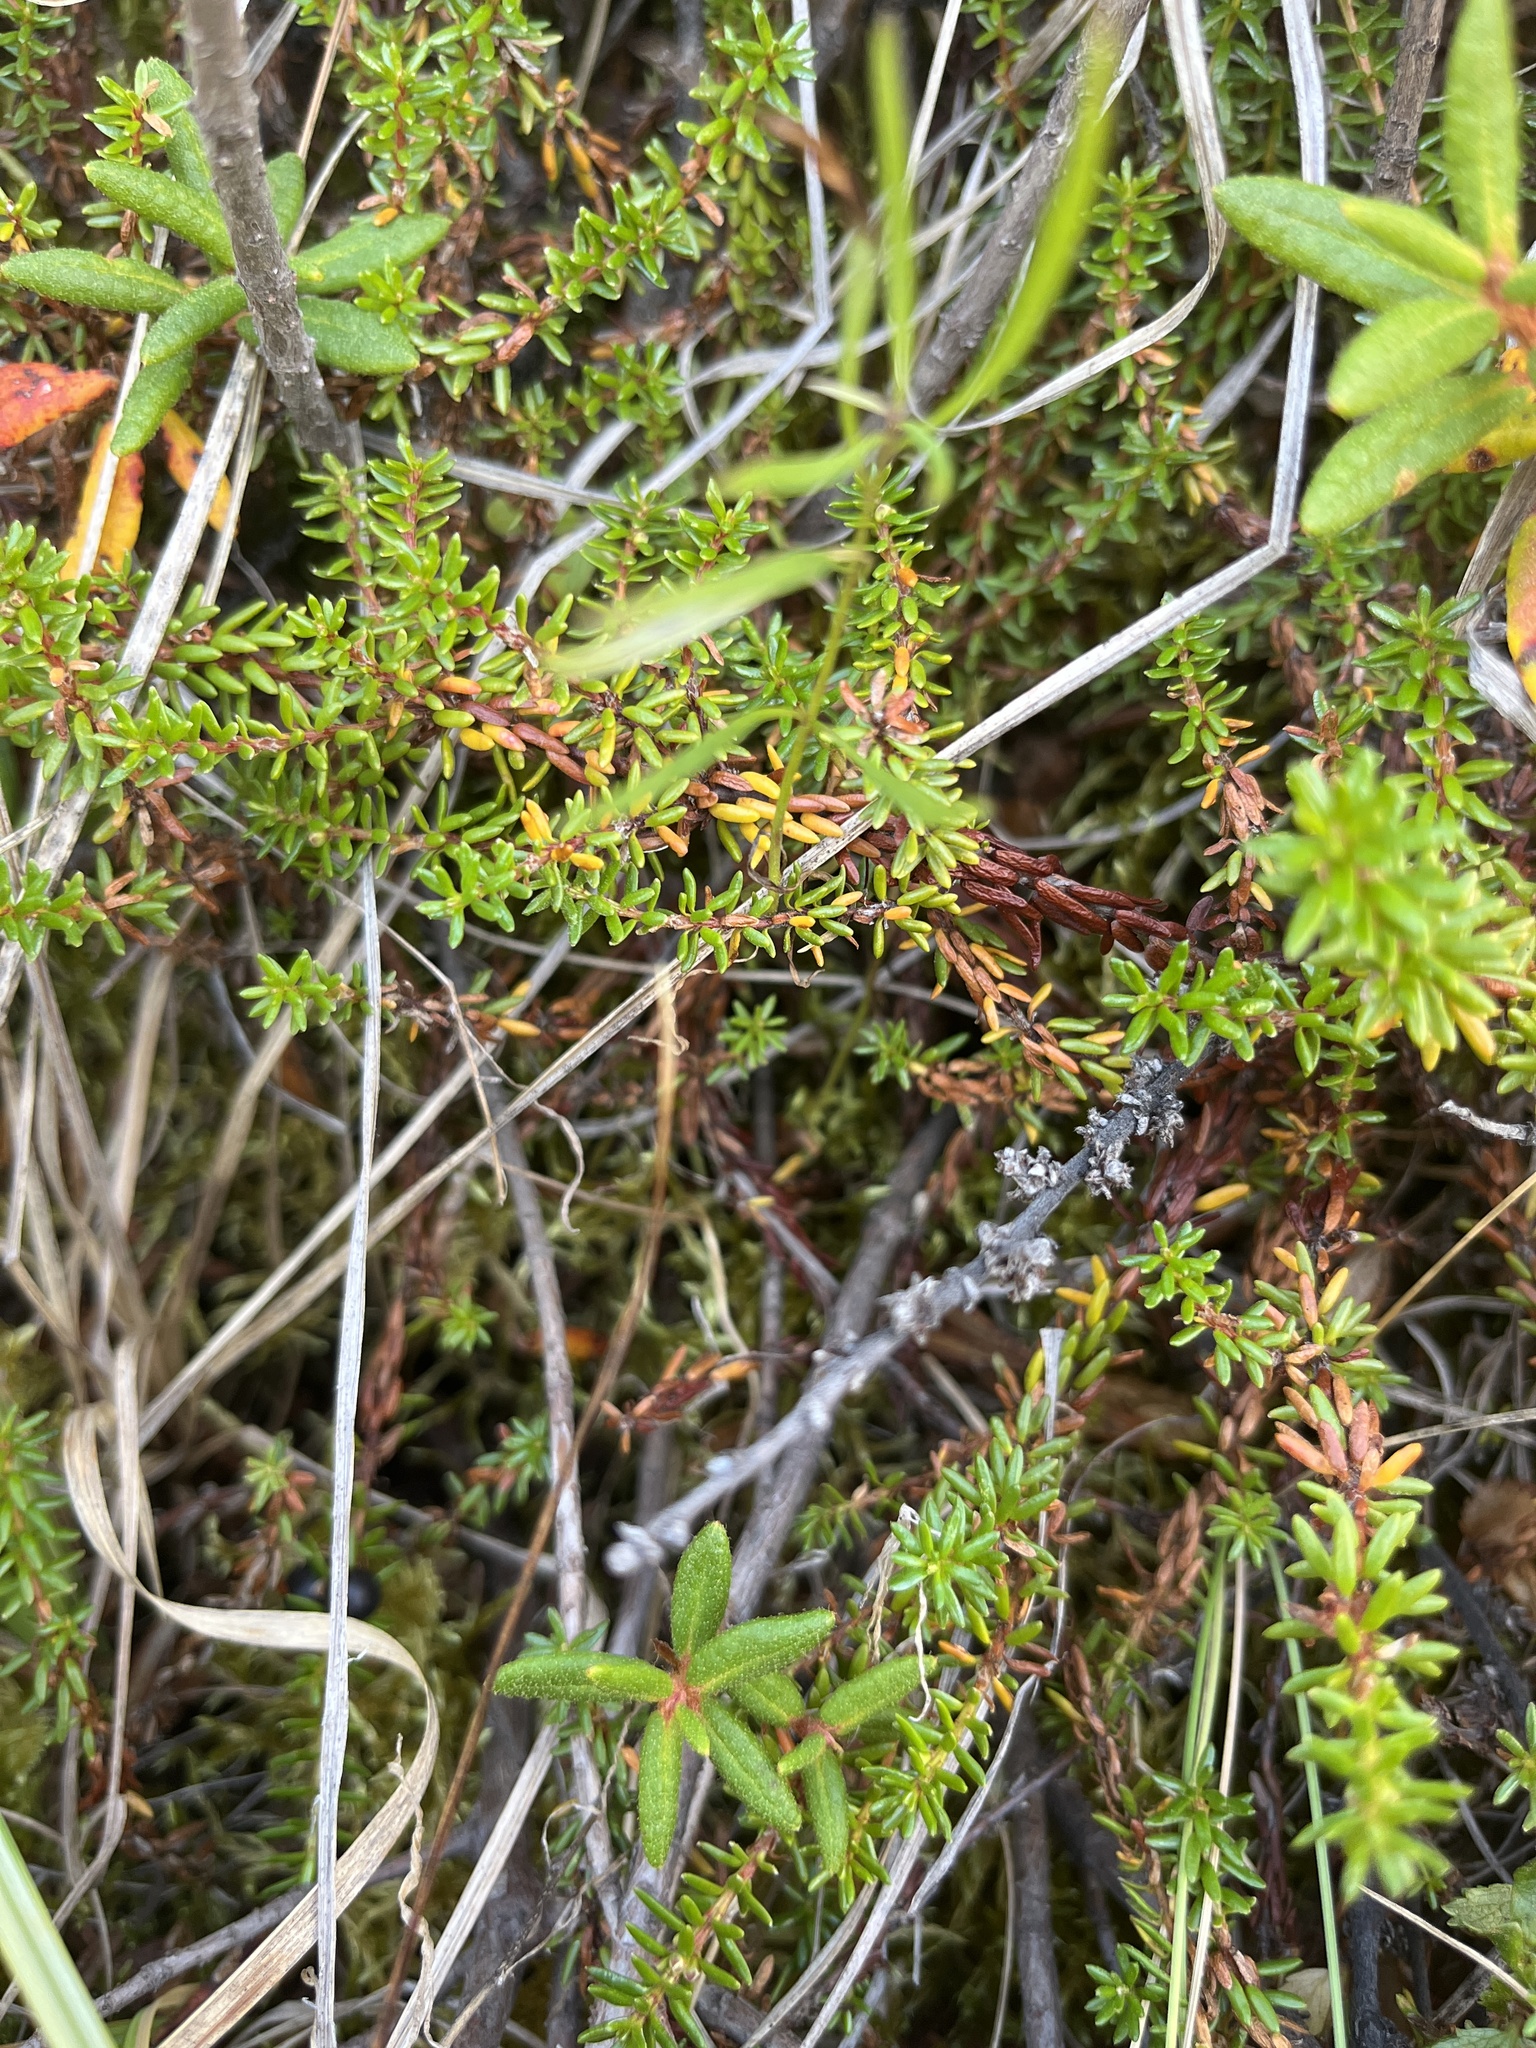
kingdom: Plantae
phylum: Tracheophyta
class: Magnoliopsida
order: Ericales
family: Ericaceae
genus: Empetrum
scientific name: Empetrum hermaphroditum
